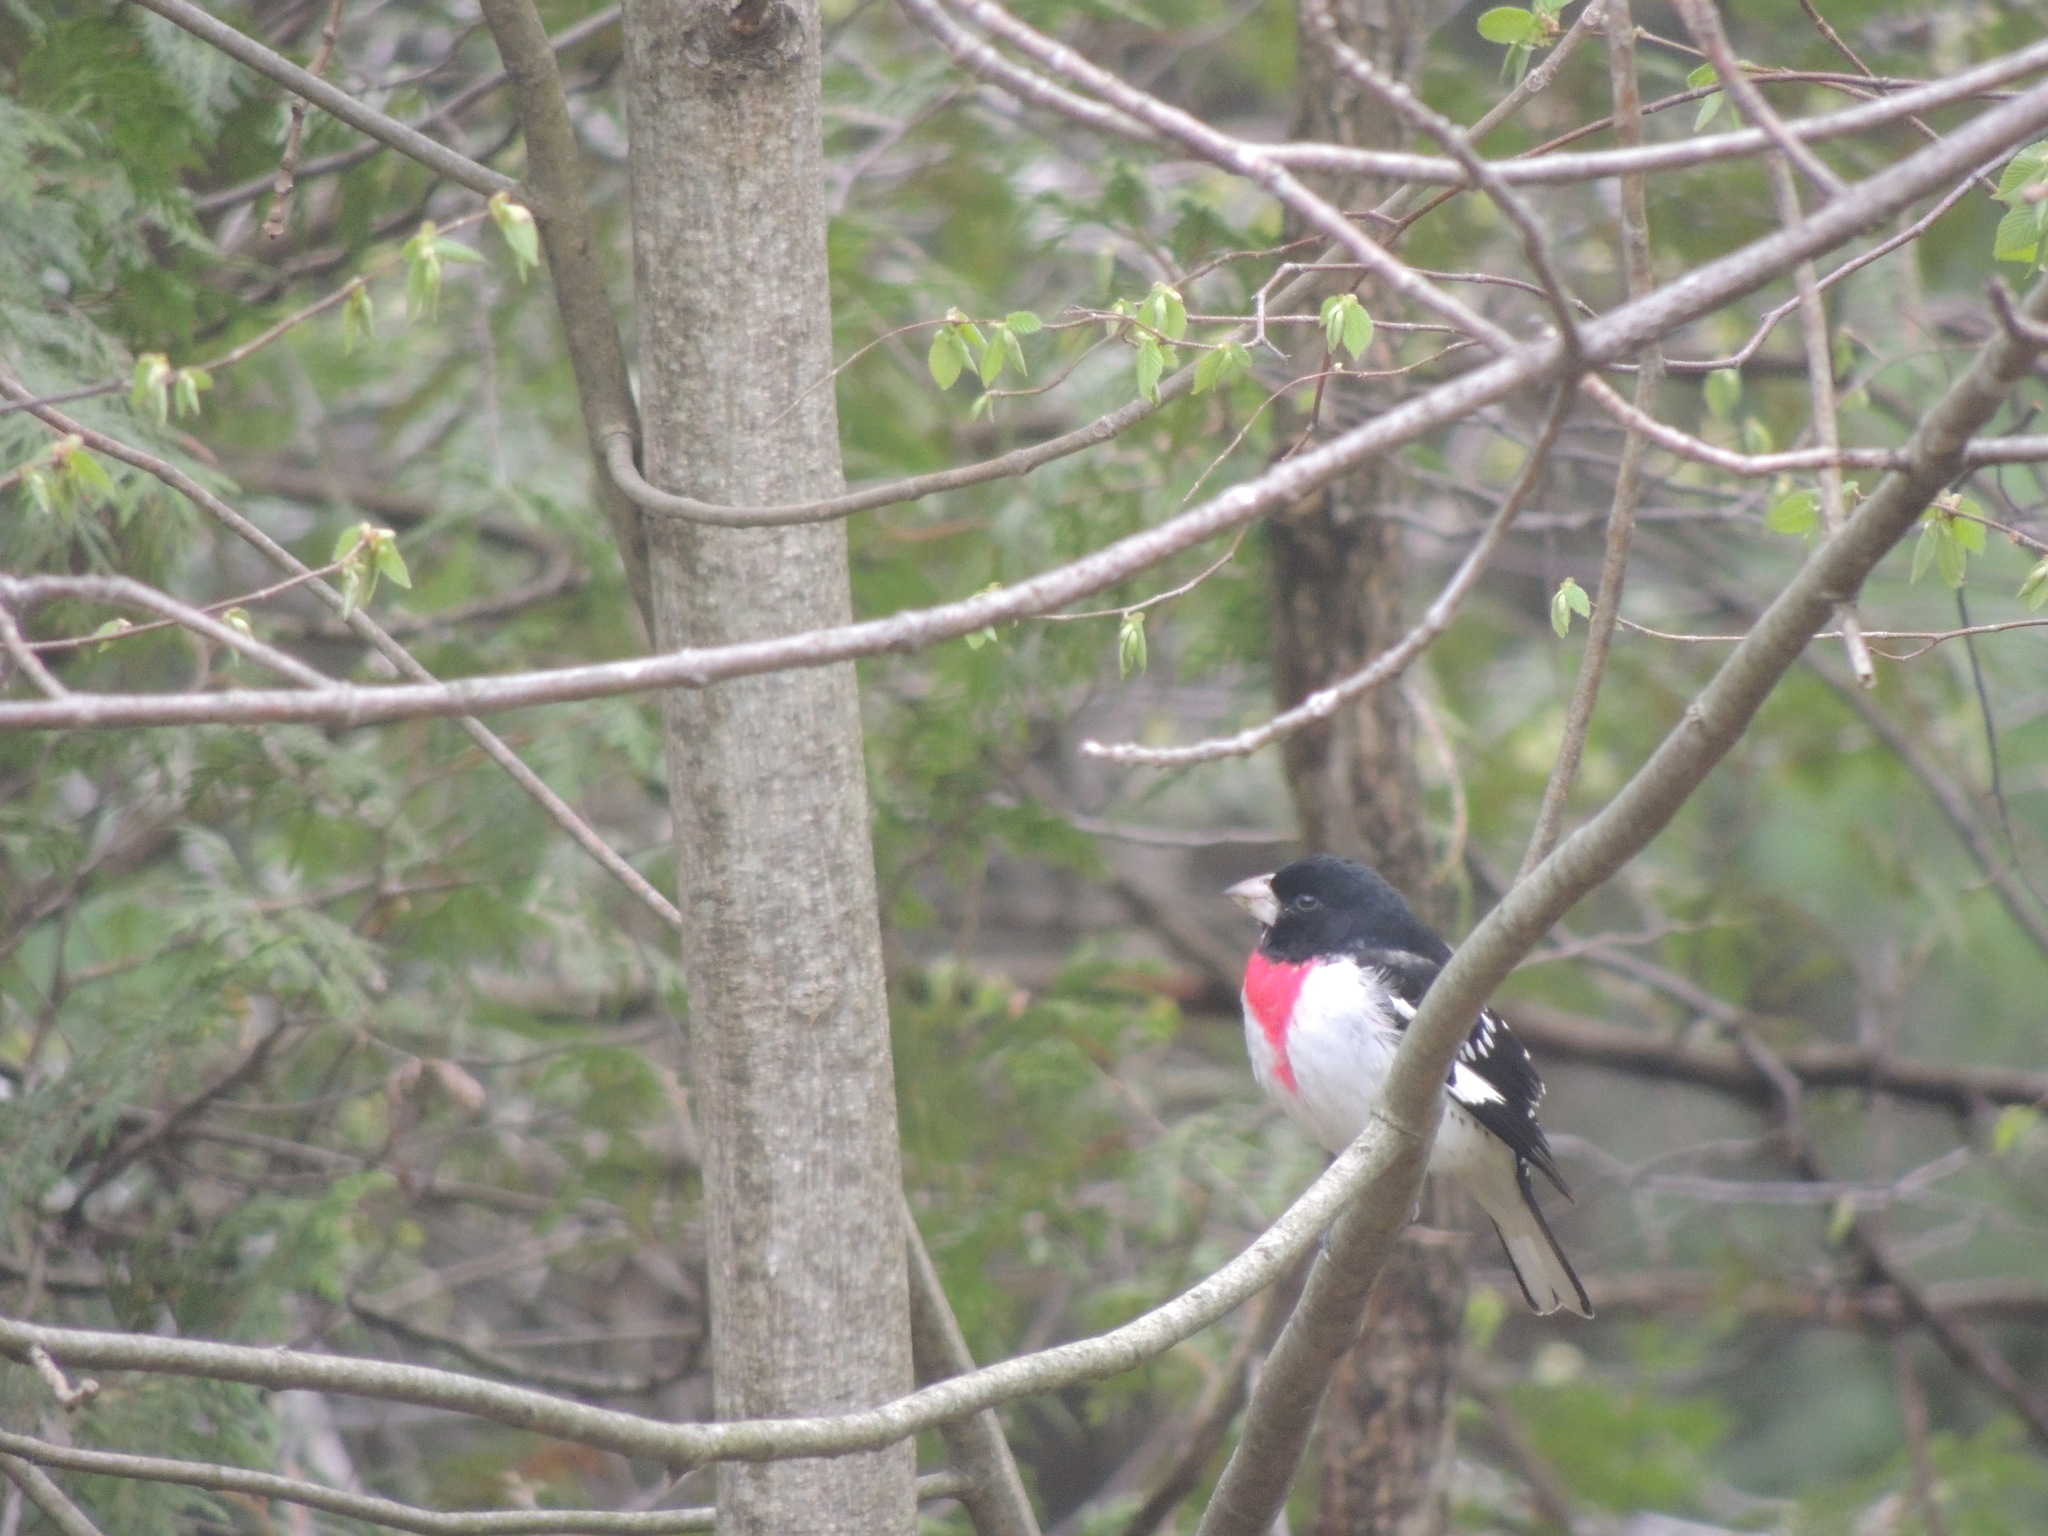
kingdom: Animalia
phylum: Chordata
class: Aves
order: Passeriformes
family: Cardinalidae
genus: Pheucticus
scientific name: Pheucticus ludovicianus
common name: Rose-breasted grosbeak
